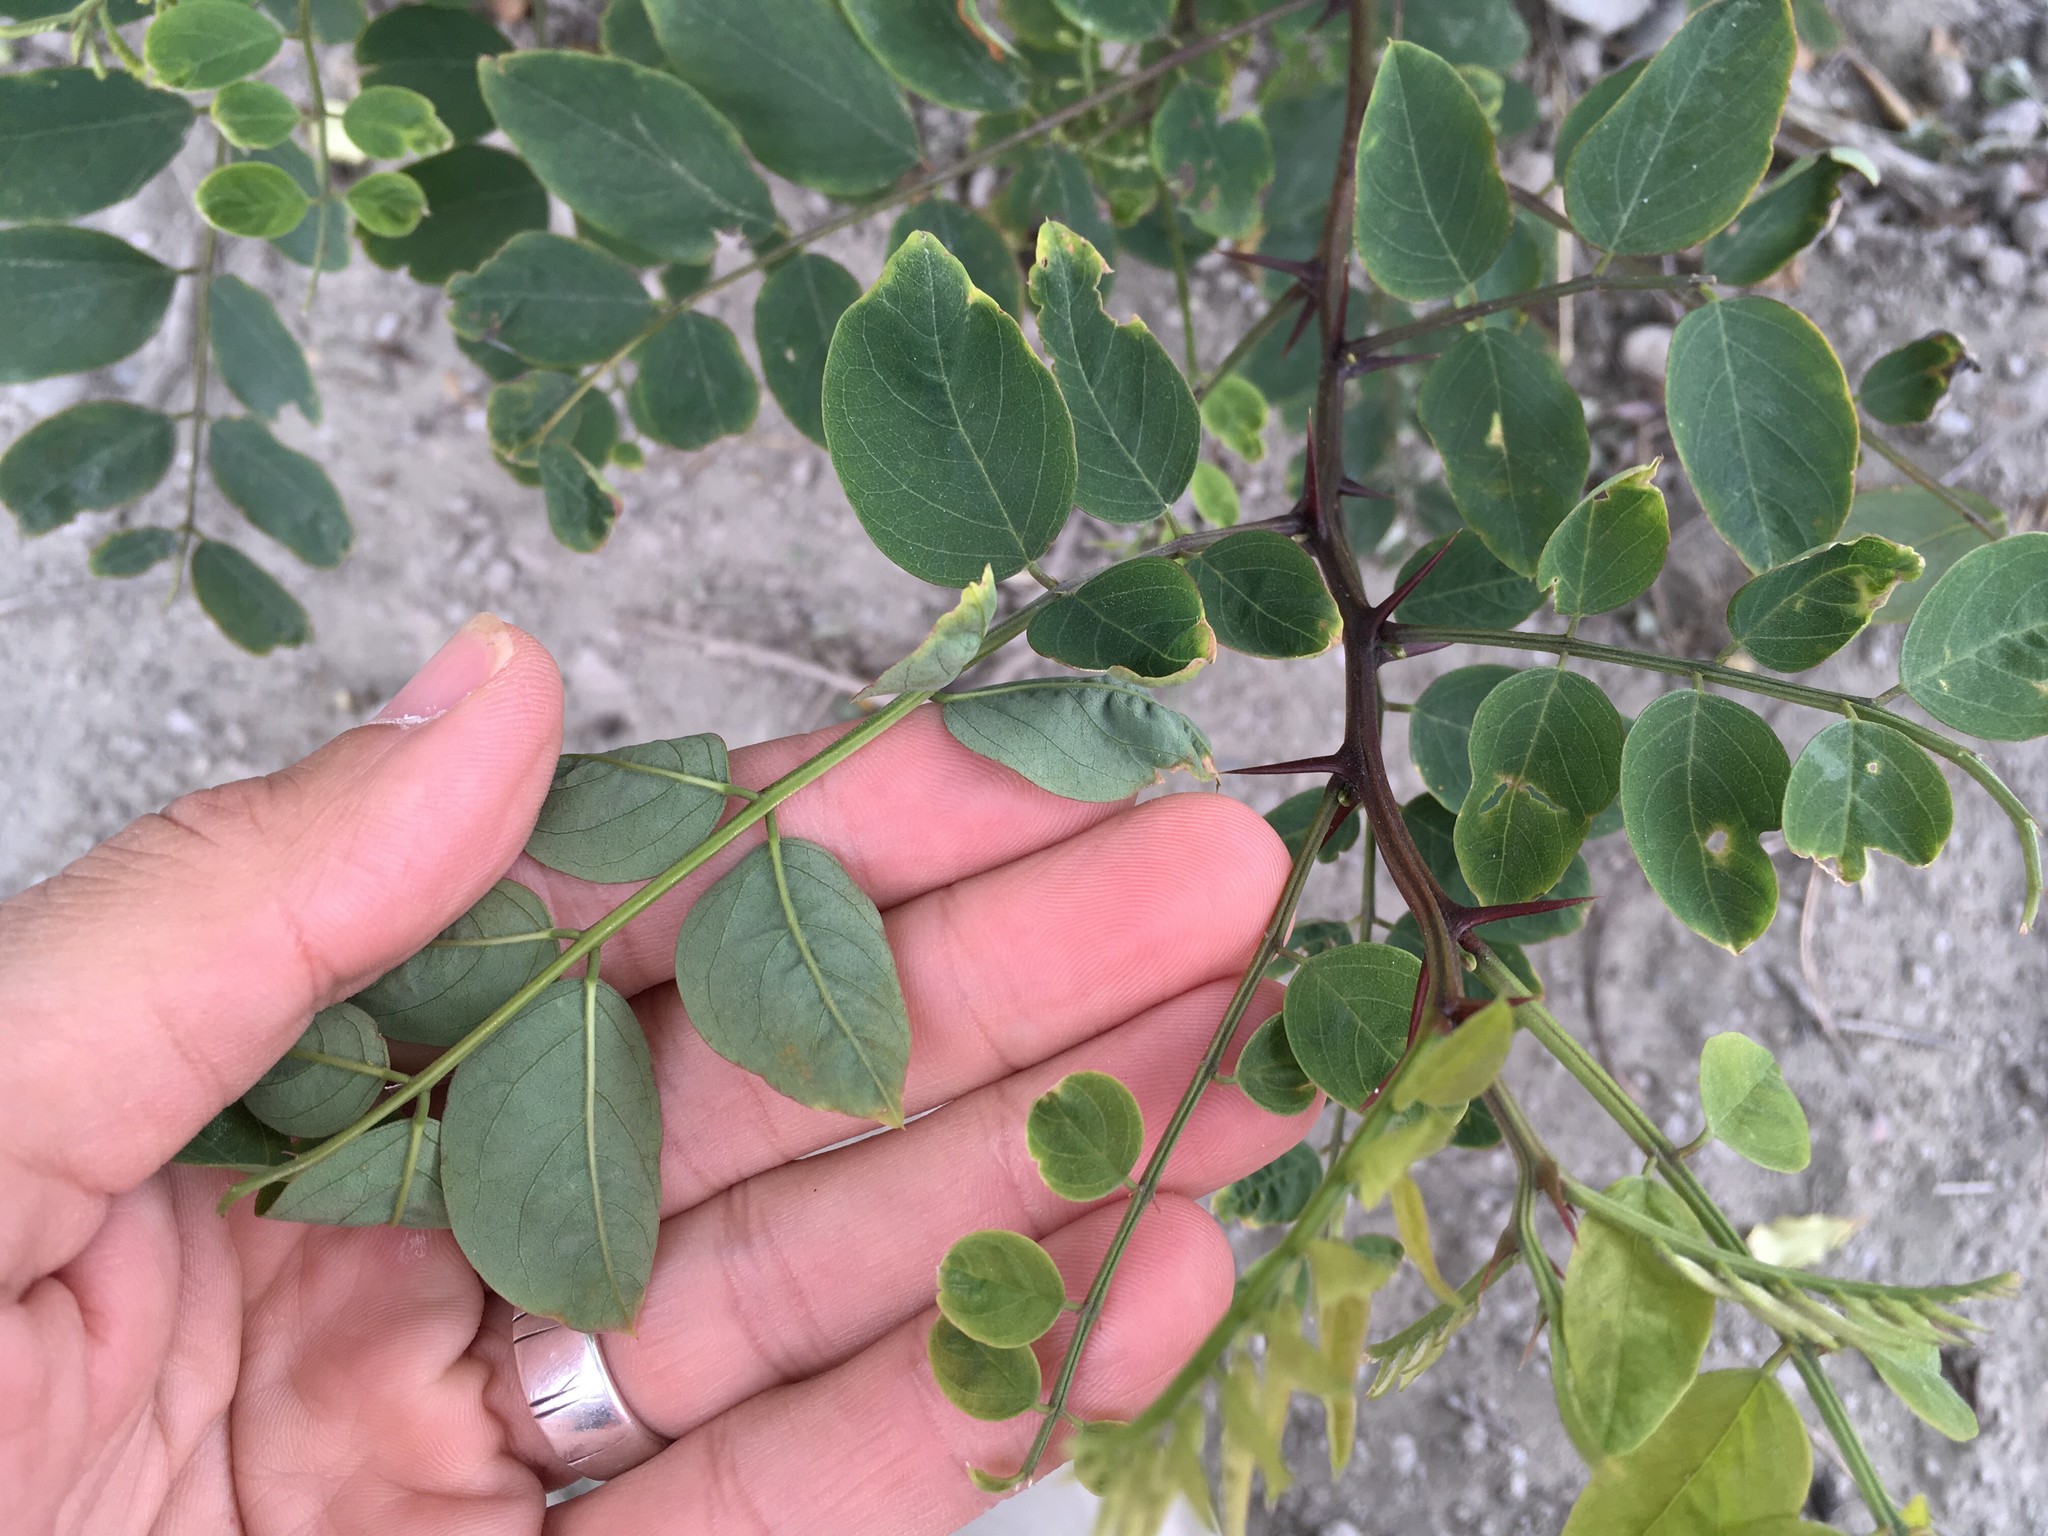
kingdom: Plantae
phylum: Tracheophyta
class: Magnoliopsida
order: Fabales
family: Fabaceae
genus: Robinia
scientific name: Robinia pseudoacacia
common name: Black locust
